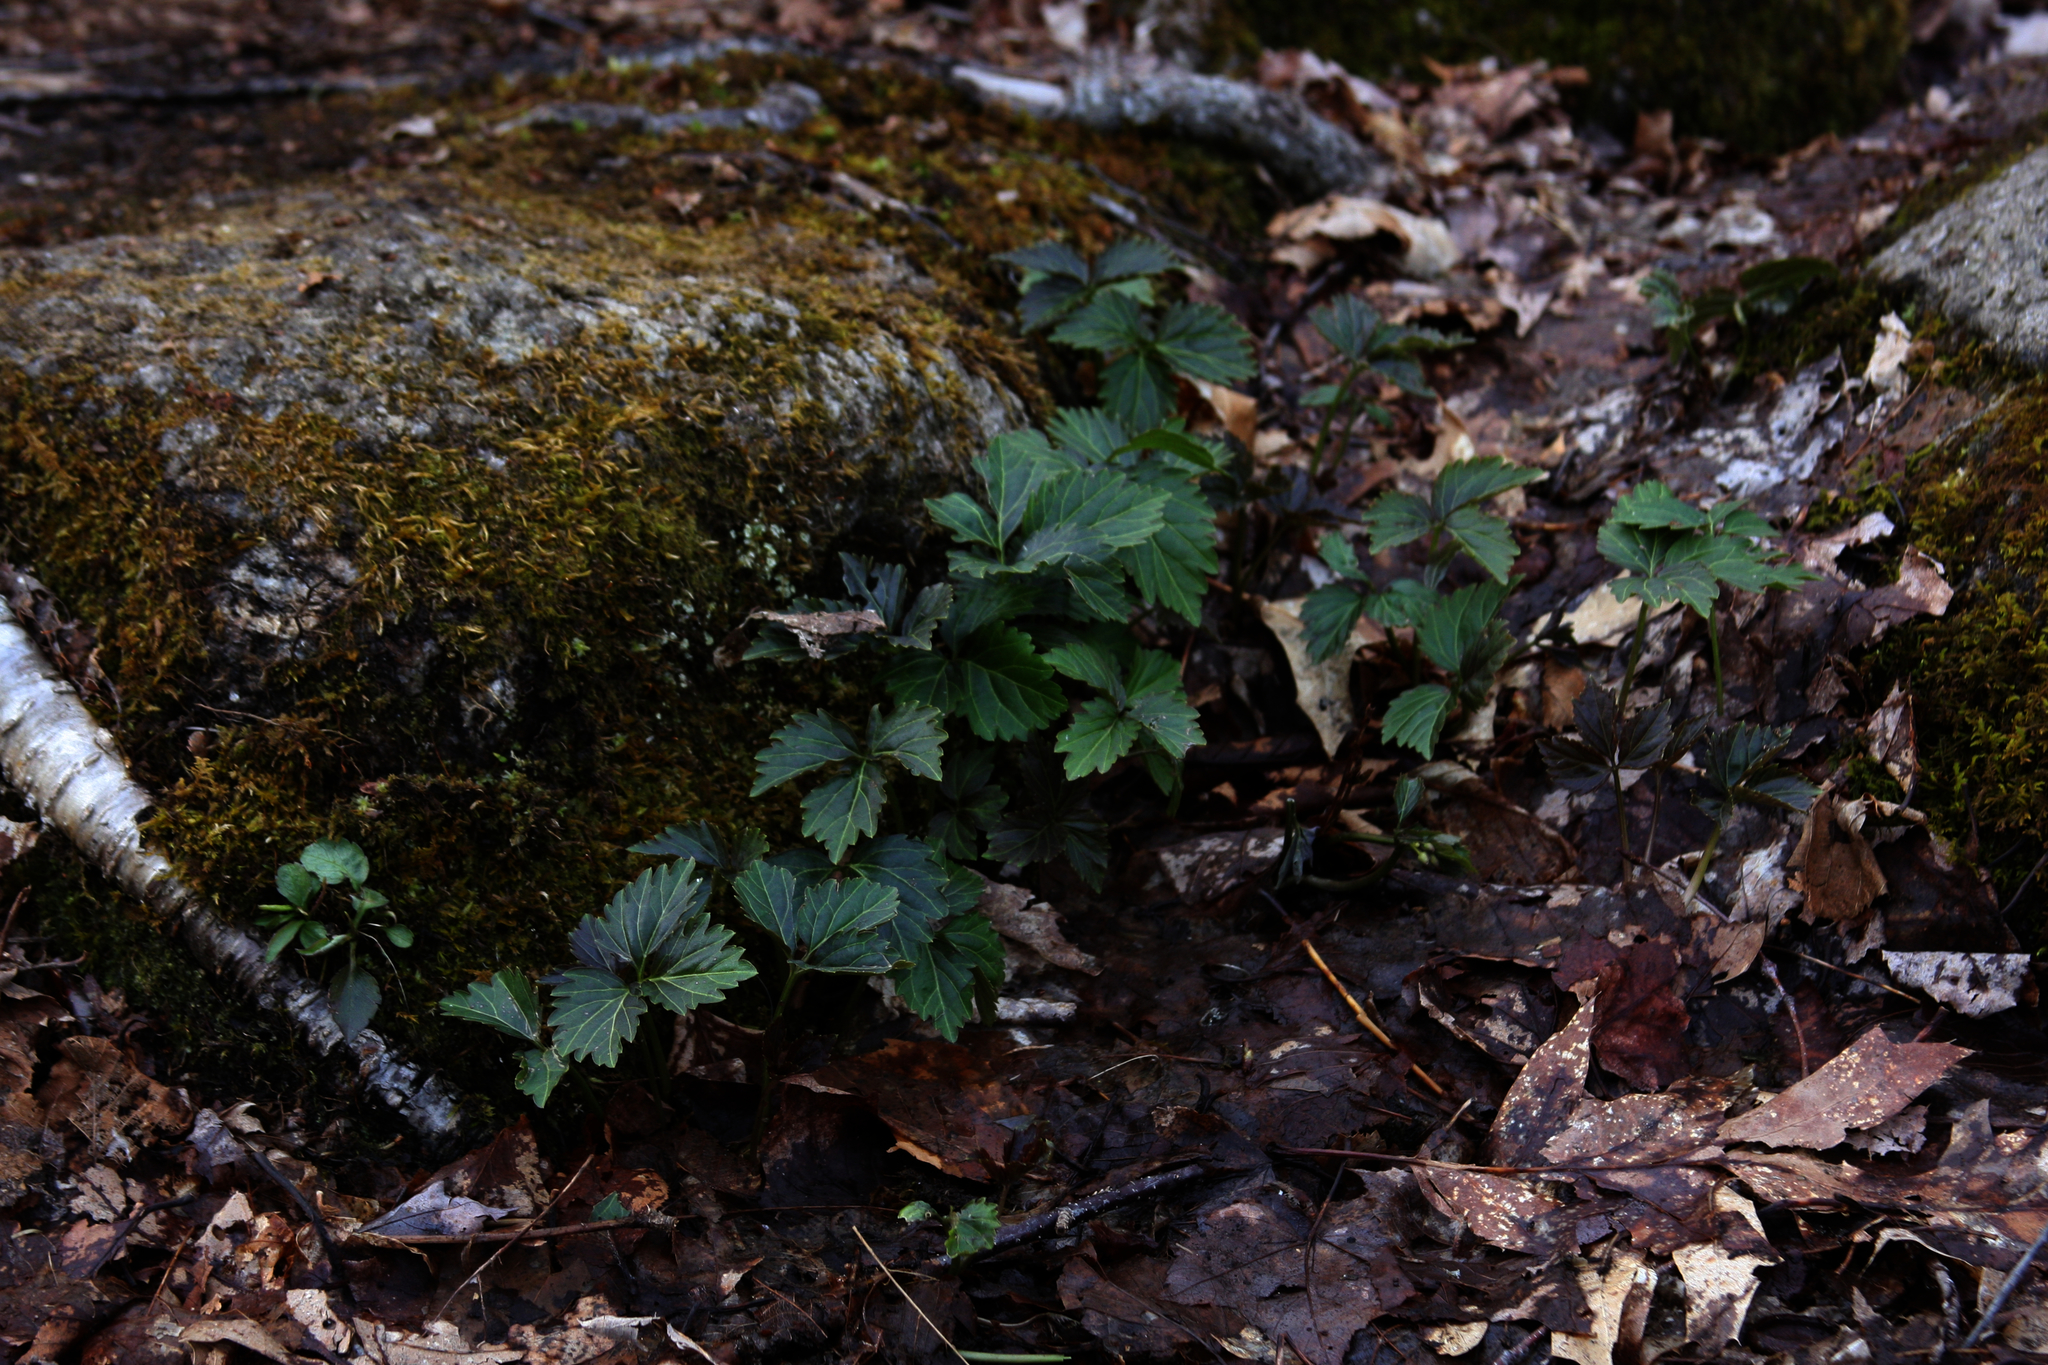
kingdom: Plantae
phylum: Tracheophyta
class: Magnoliopsida
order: Brassicales
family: Brassicaceae
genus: Cardamine
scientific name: Cardamine diphylla
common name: Broad-leaved toothwort
